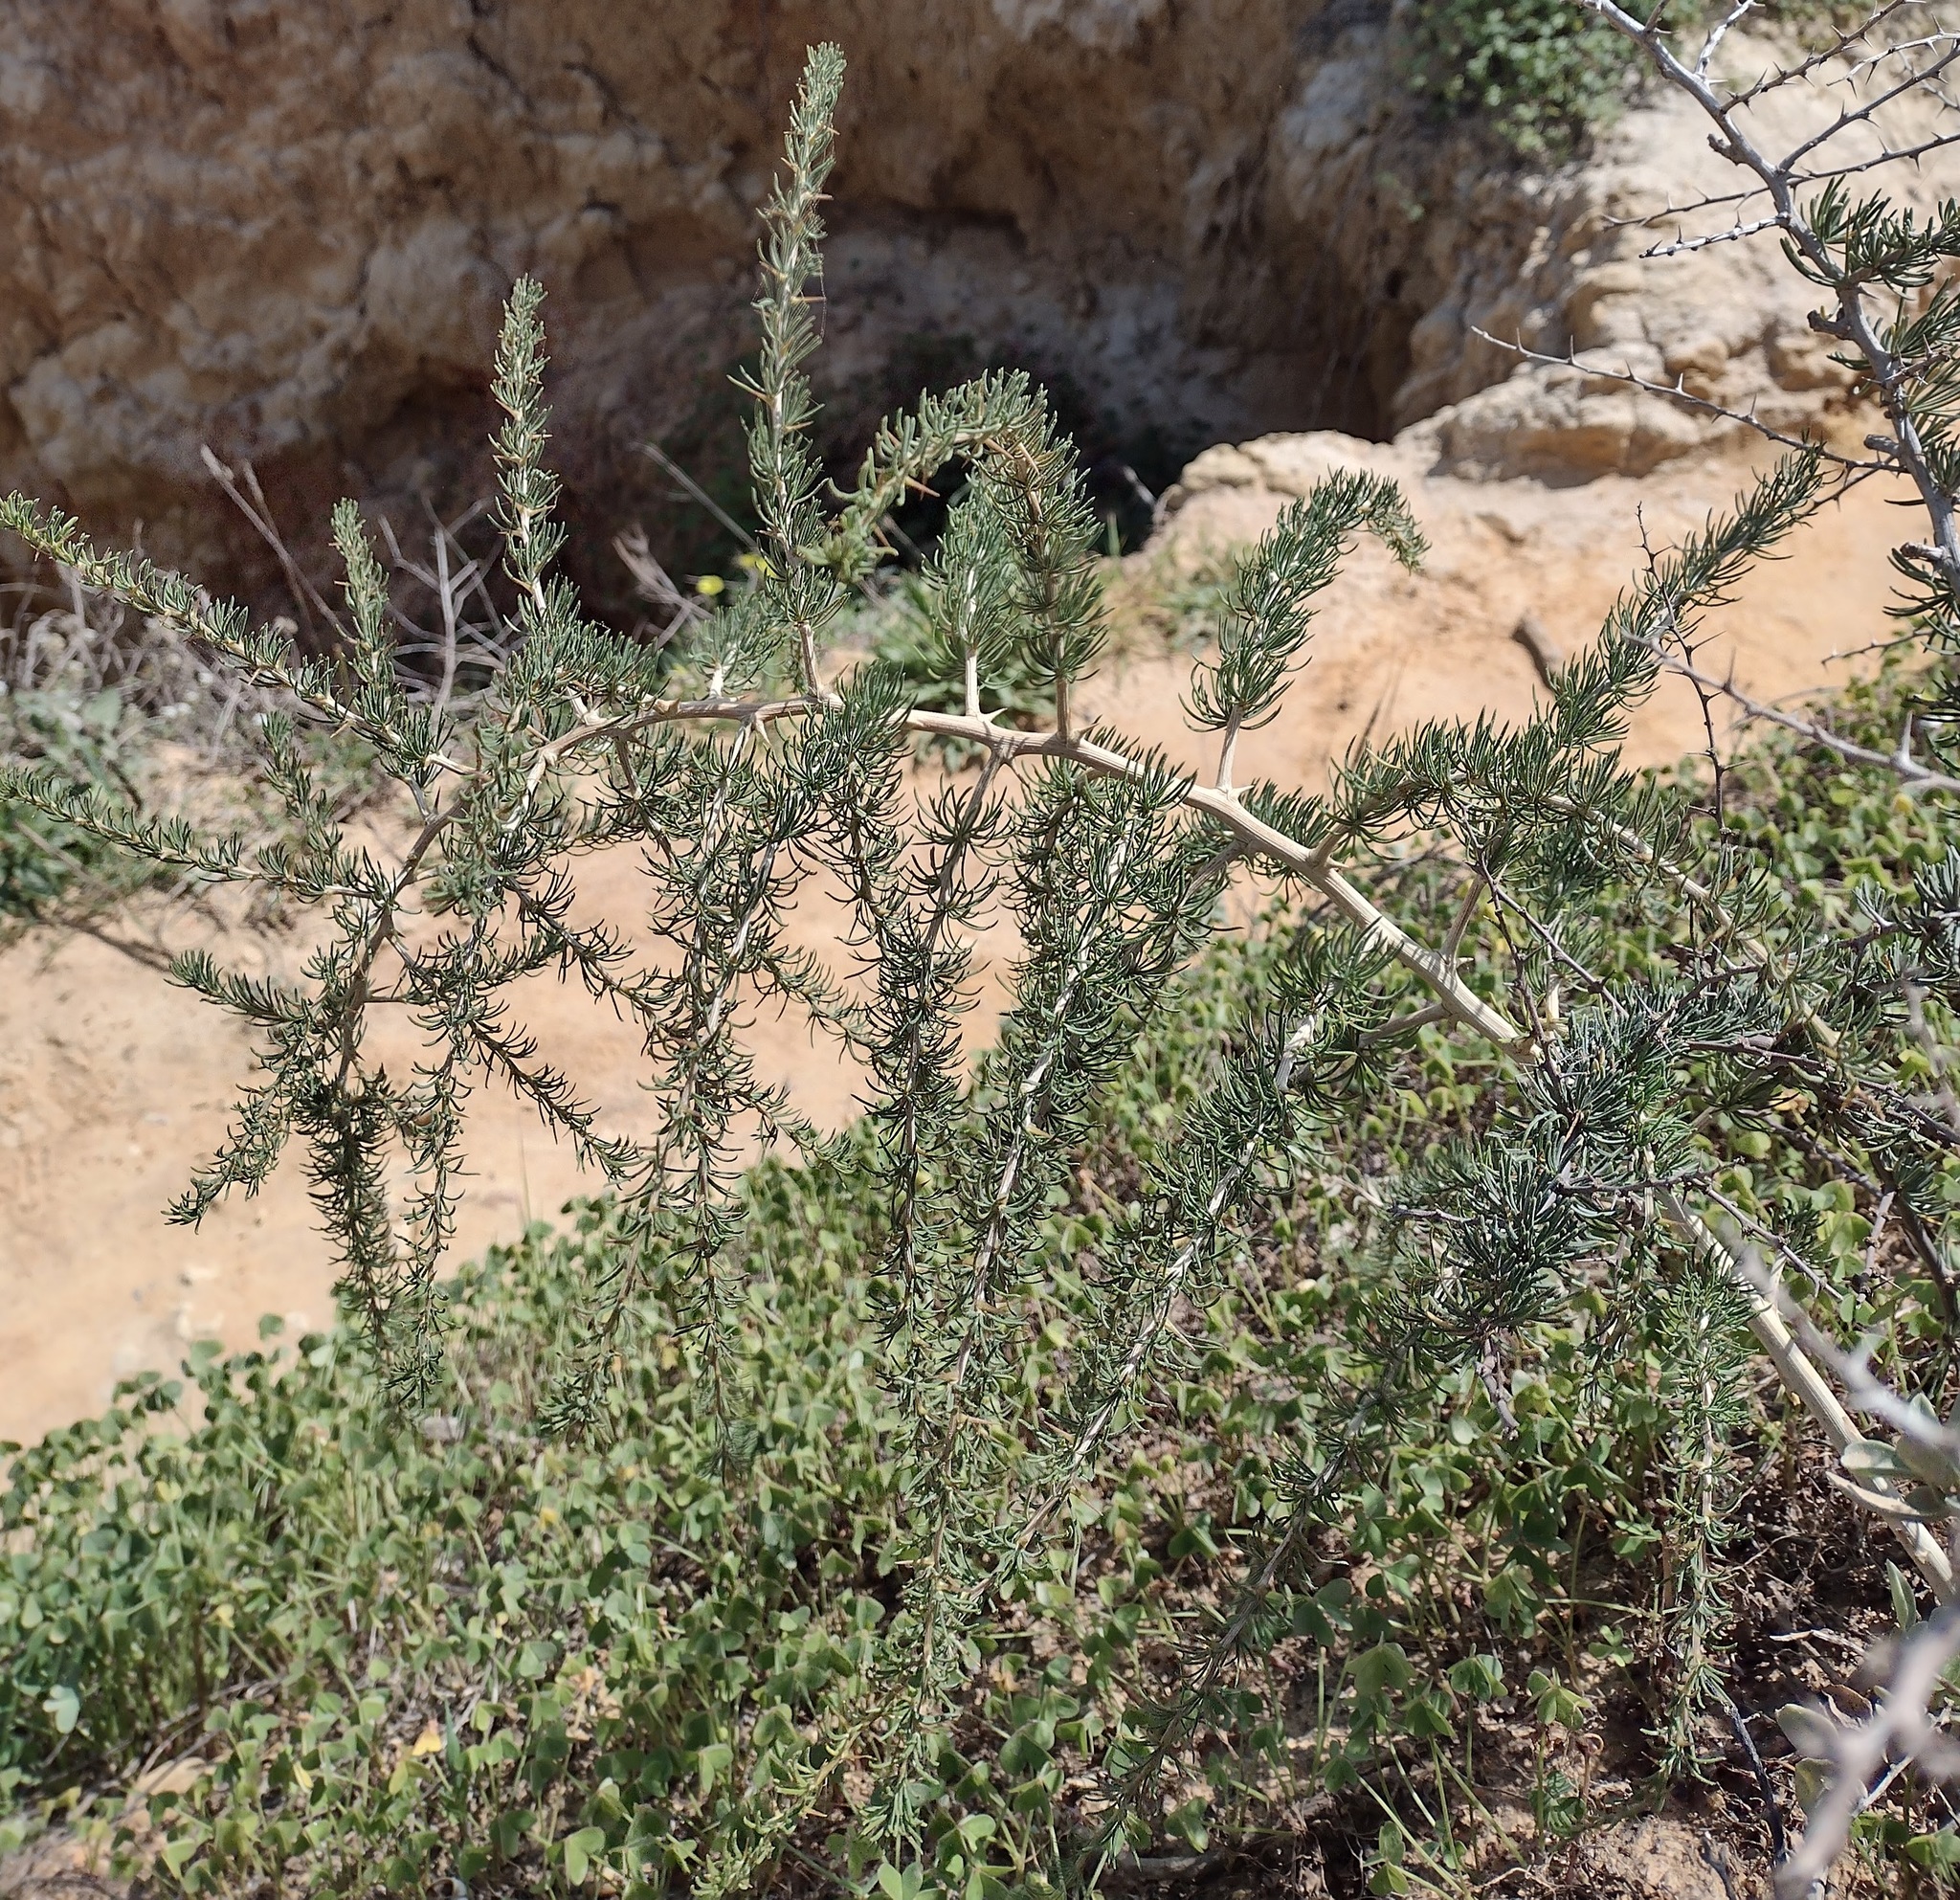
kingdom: Plantae
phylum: Tracheophyta
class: Liliopsida
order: Asparagales
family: Asparagaceae
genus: Asparagus
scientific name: Asparagus albus
